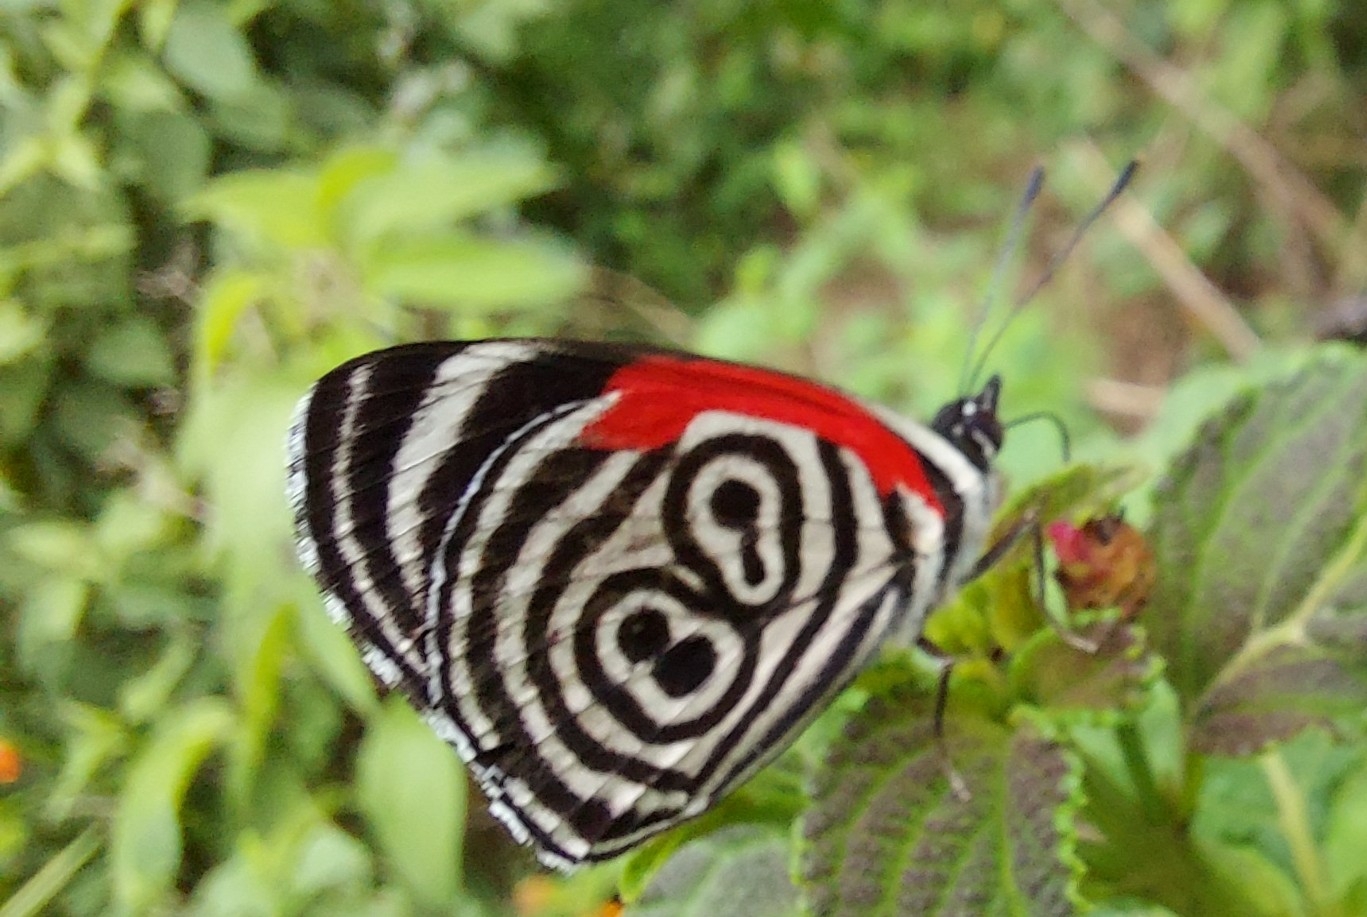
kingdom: Animalia
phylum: Arthropoda
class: Insecta
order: Lepidoptera
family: Nymphalidae
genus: Diaethria
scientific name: Diaethria clymena
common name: Widespread eighty-eight
